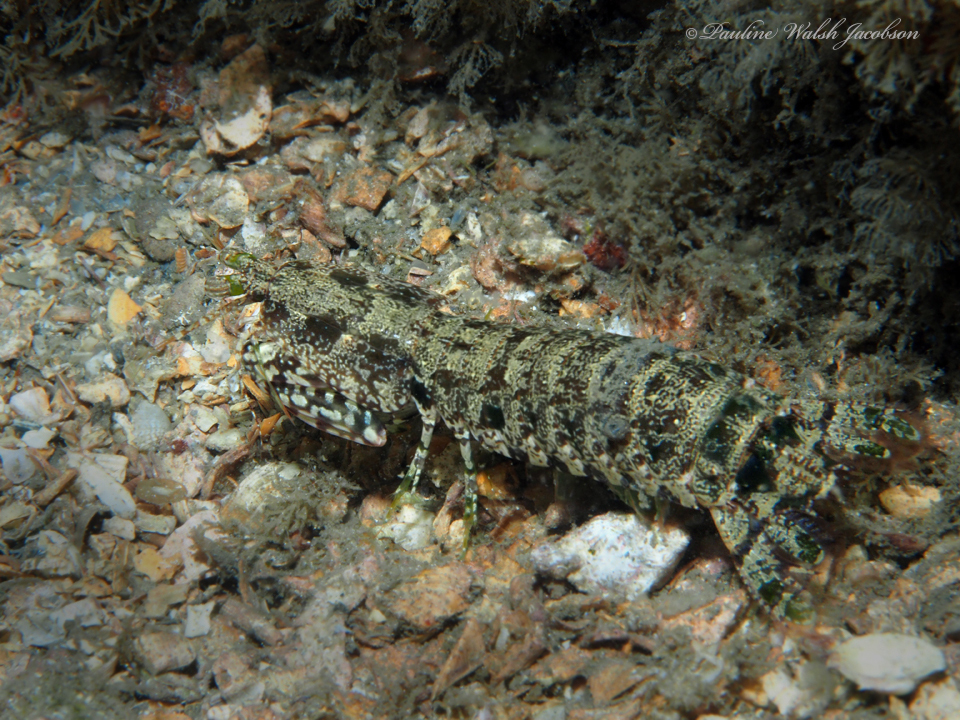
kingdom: Animalia
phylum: Arthropoda
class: Malacostraca
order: Stomatopoda
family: Pseudosquillidae
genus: Pseudosquilla
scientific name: Pseudosquilla ciliata
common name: Ciliated false squilla
